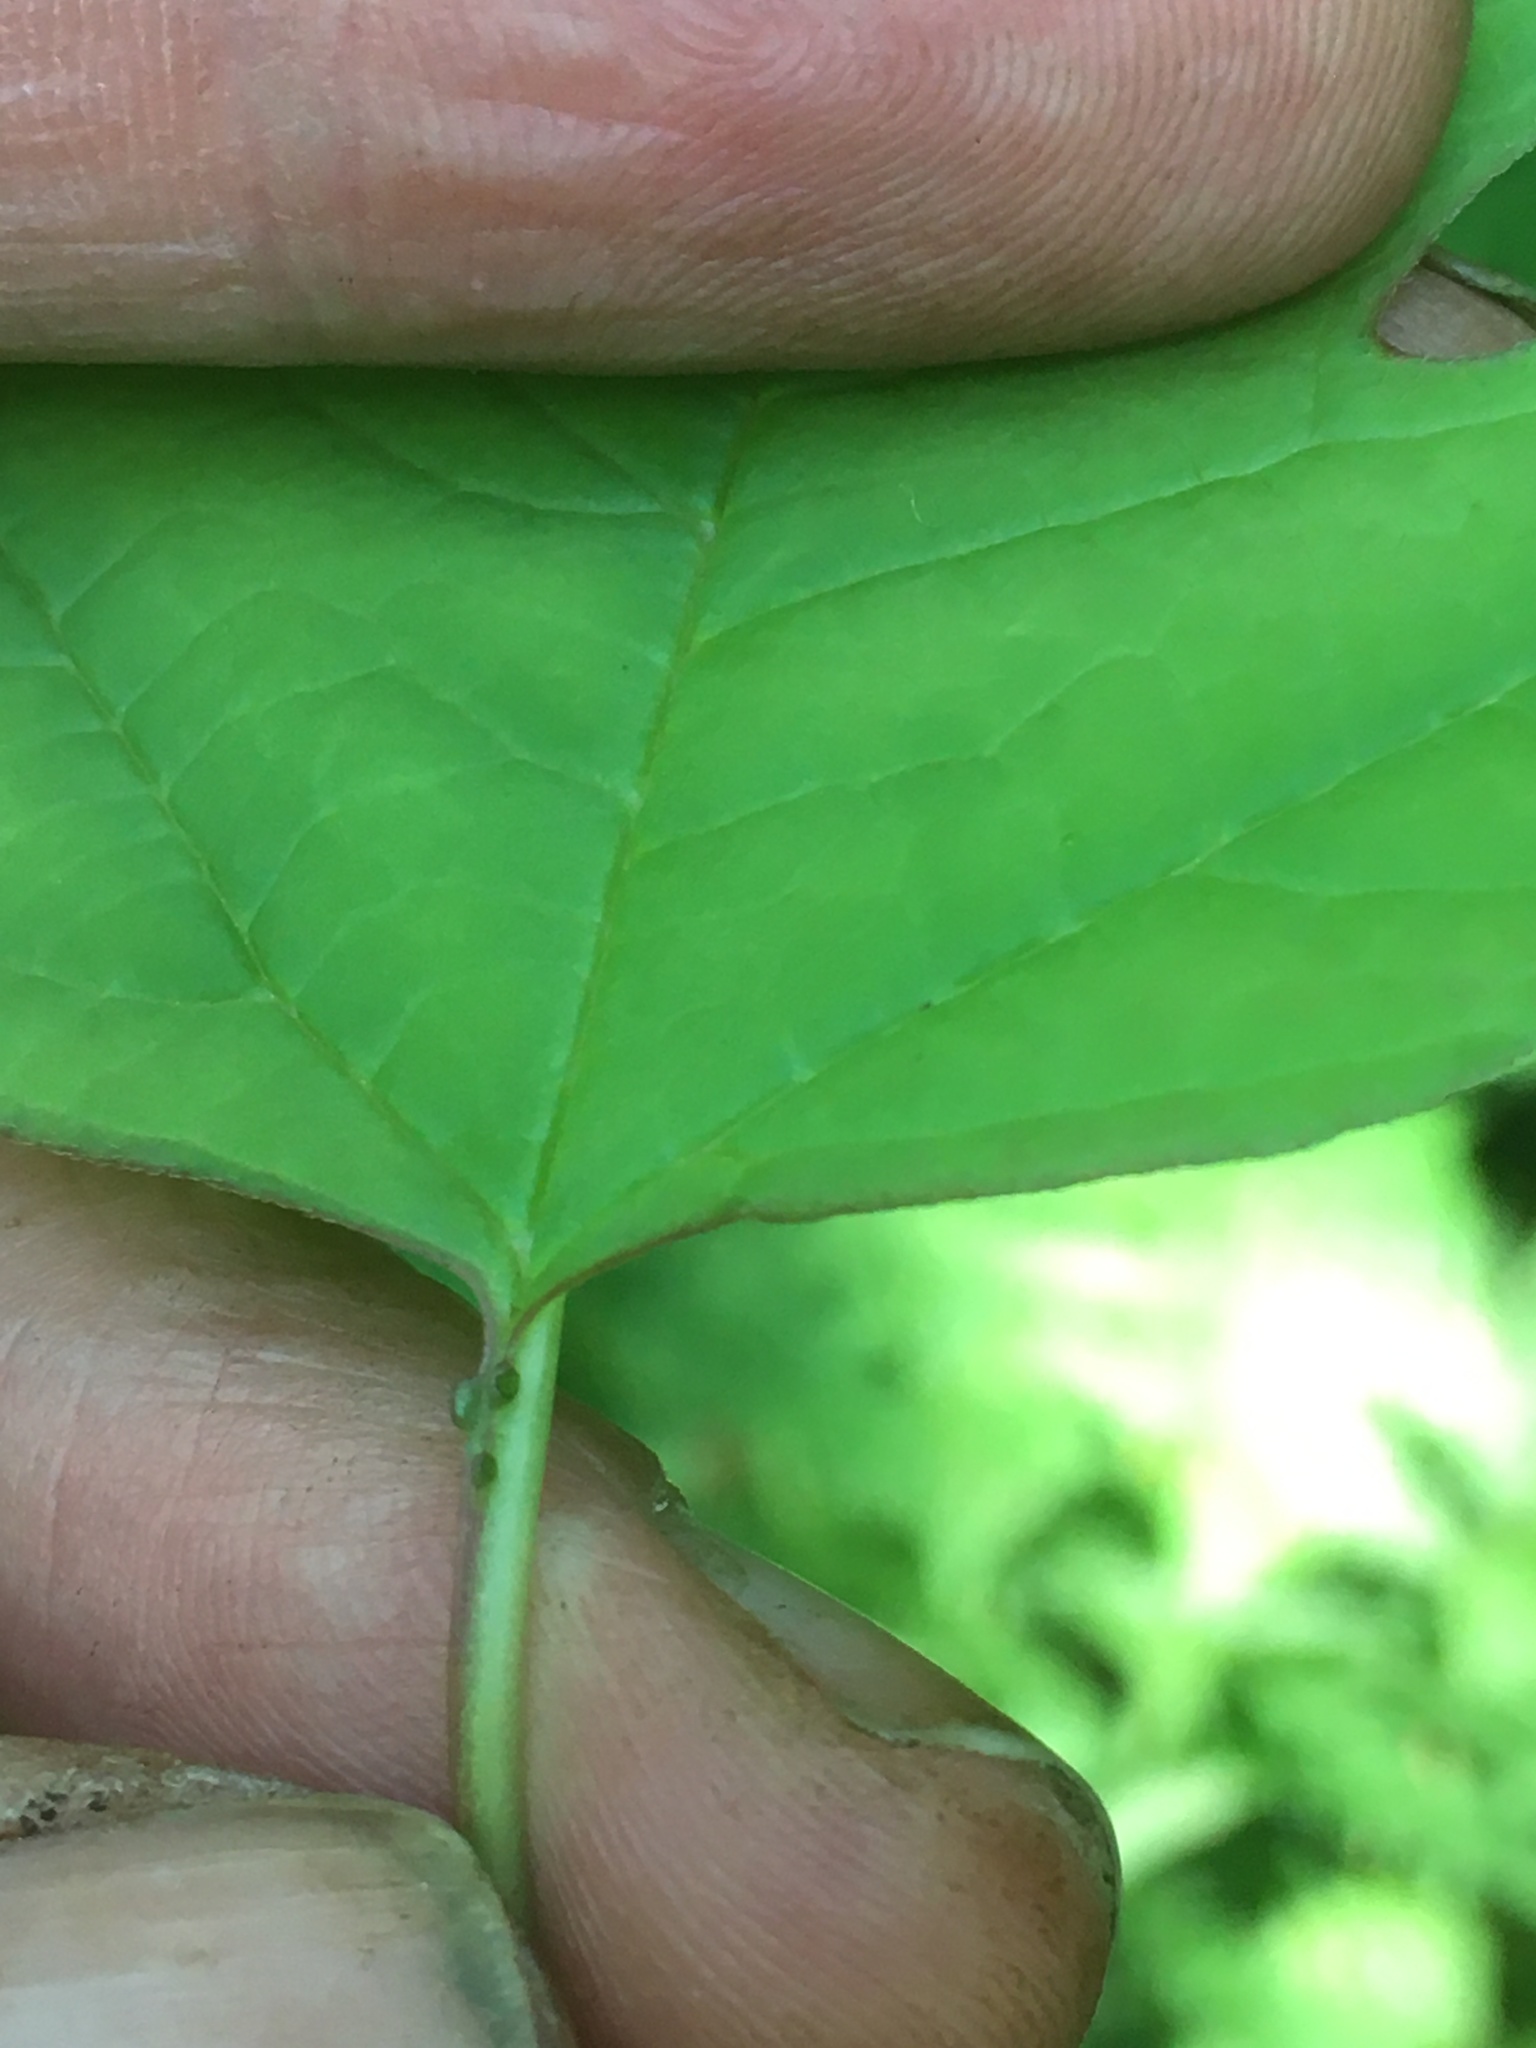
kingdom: Plantae
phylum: Tracheophyta
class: Magnoliopsida
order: Dipsacales
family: Viburnaceae
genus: Viburnum
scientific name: Viburnum opulus
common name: Guelder-rose
